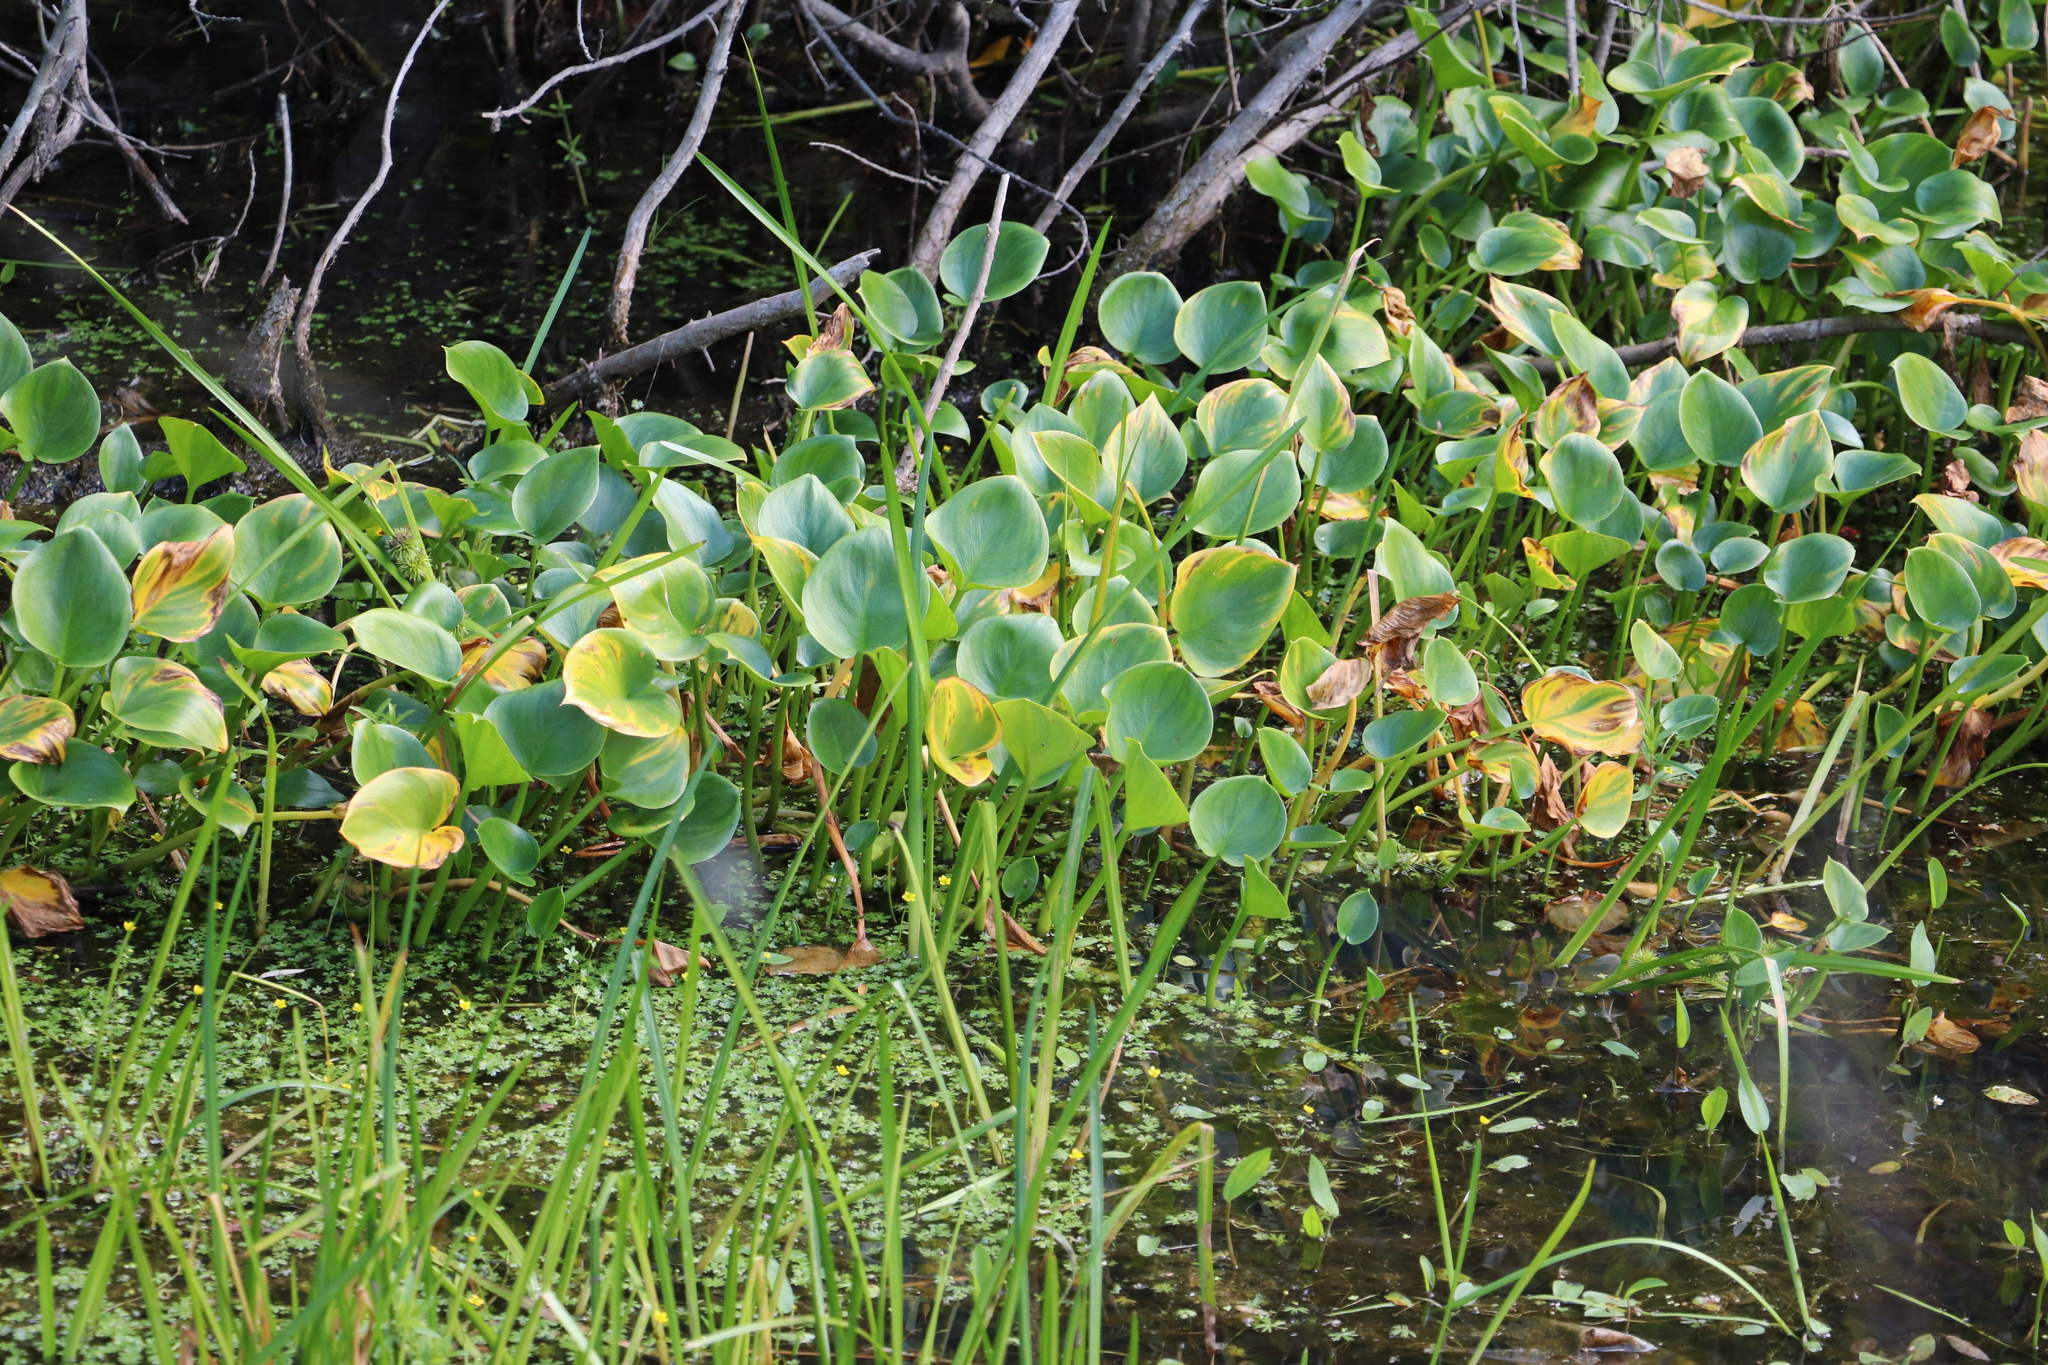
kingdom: Plantae
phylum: Tracheophyta
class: Liliopsida
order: Alismatales
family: Araceae
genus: Calla
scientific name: Calla palustris
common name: Bog arum
